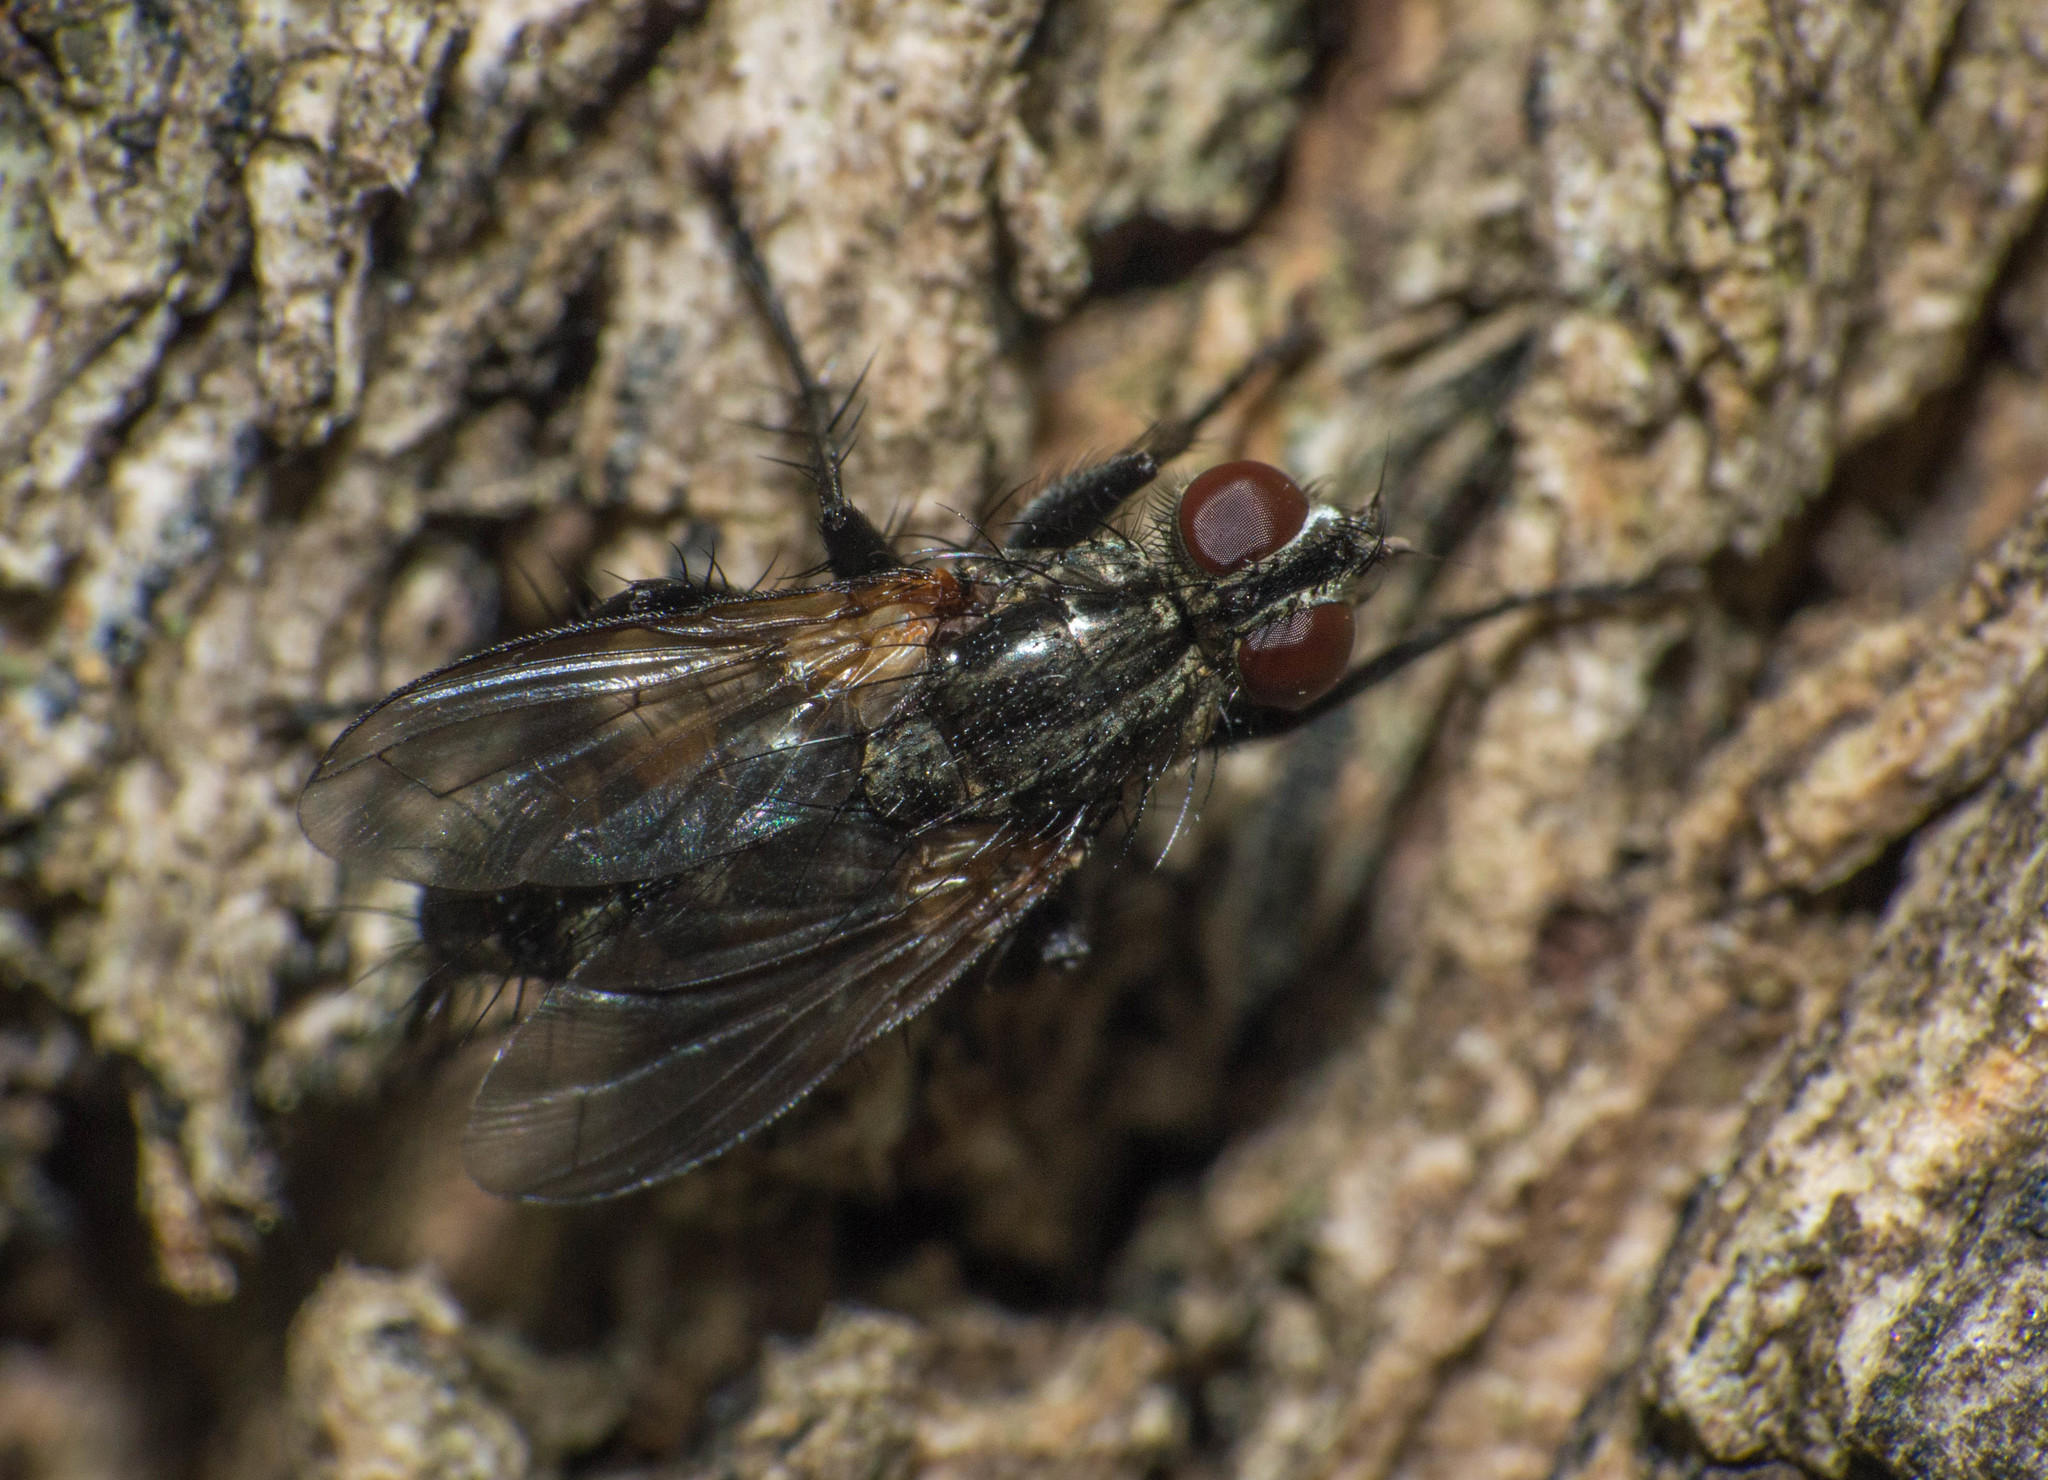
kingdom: Animalia
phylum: Arthropoda
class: Insecta
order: Diptera
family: Calliphoridae
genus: Stevenia
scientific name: Stevenia deceptoria
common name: Grizzled woodlouse-fly
